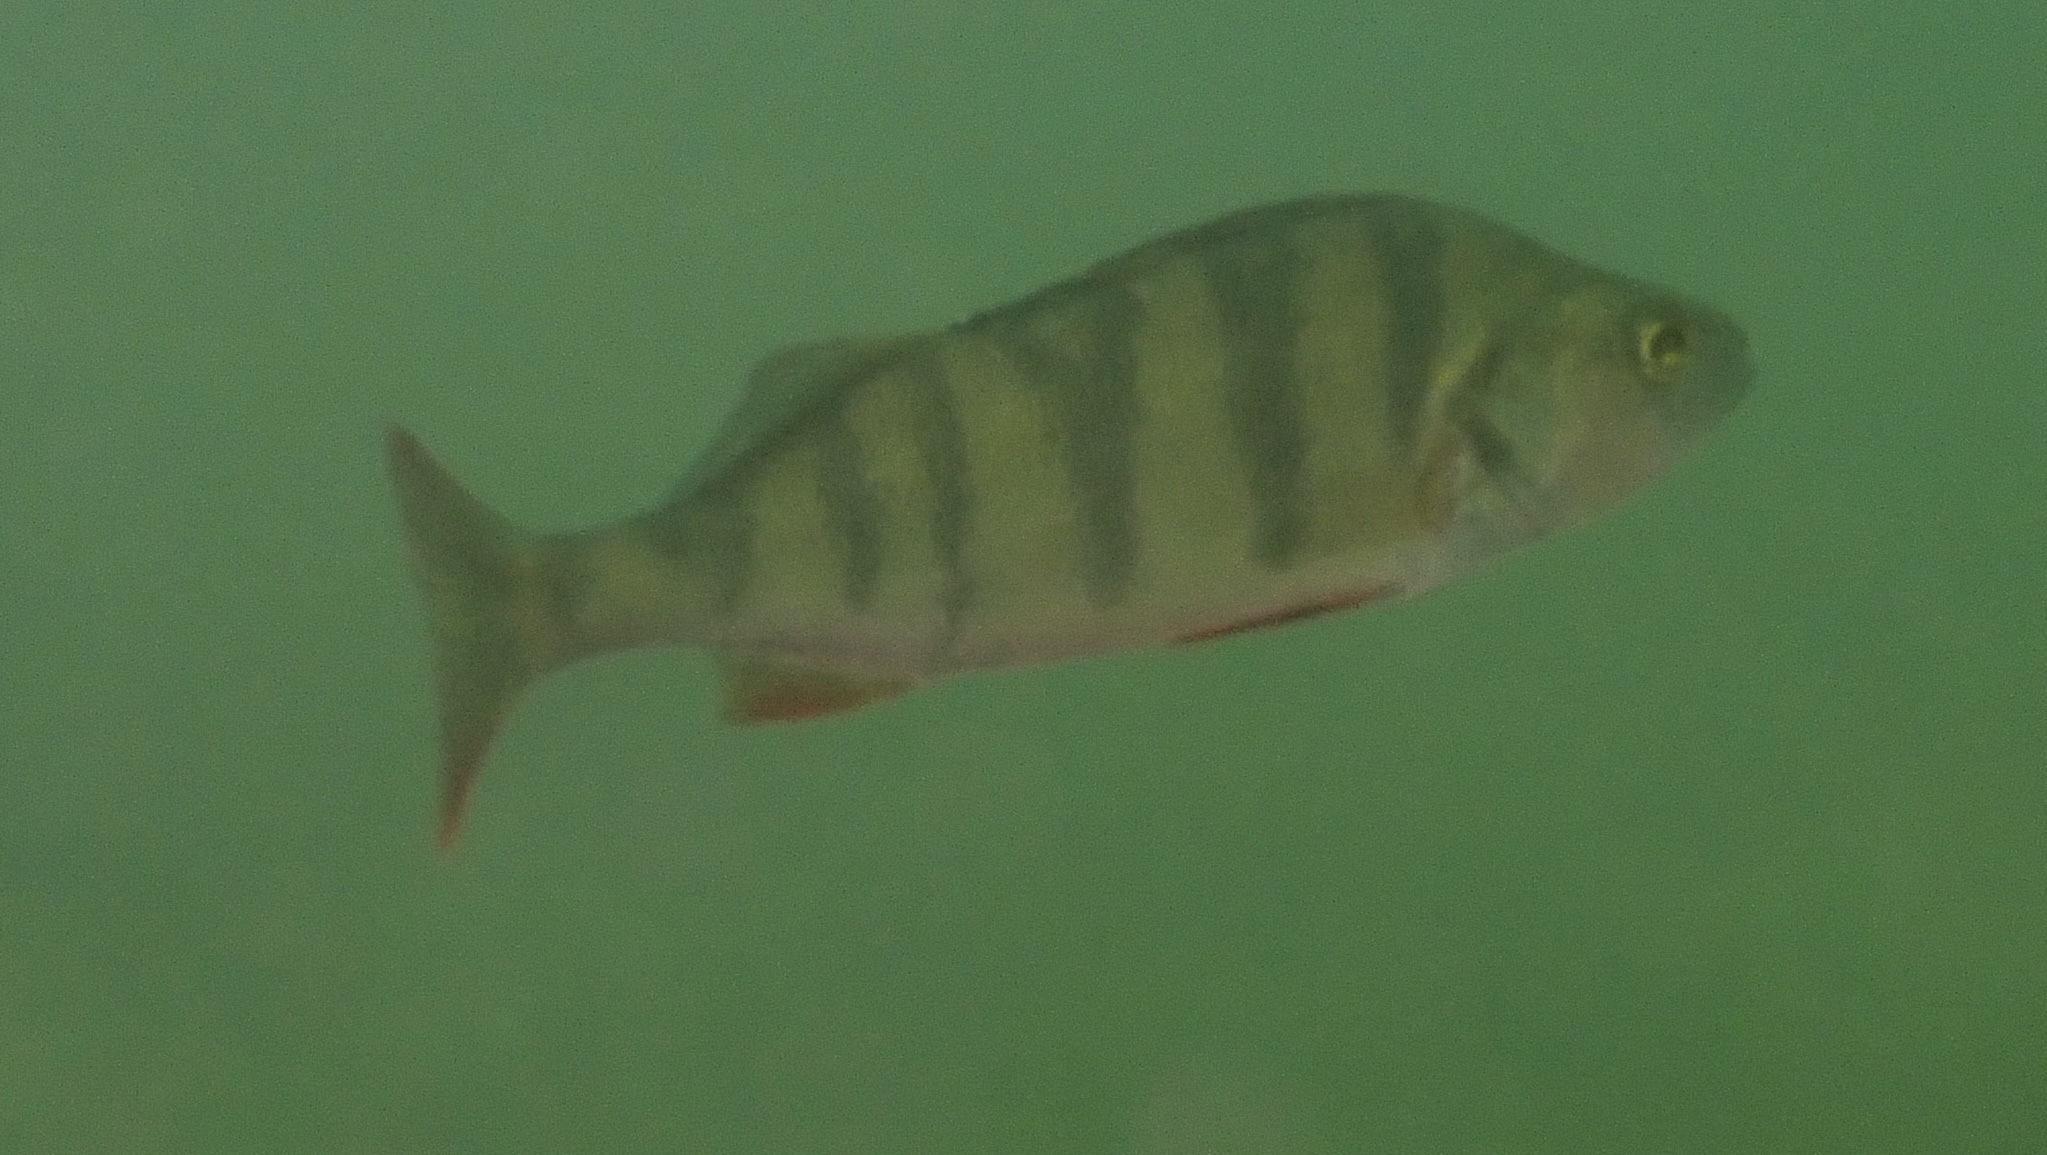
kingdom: Animalia
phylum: Chordata
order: Perciformes
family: Percidae
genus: Perca
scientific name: Perca fluviatilis
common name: Perch
